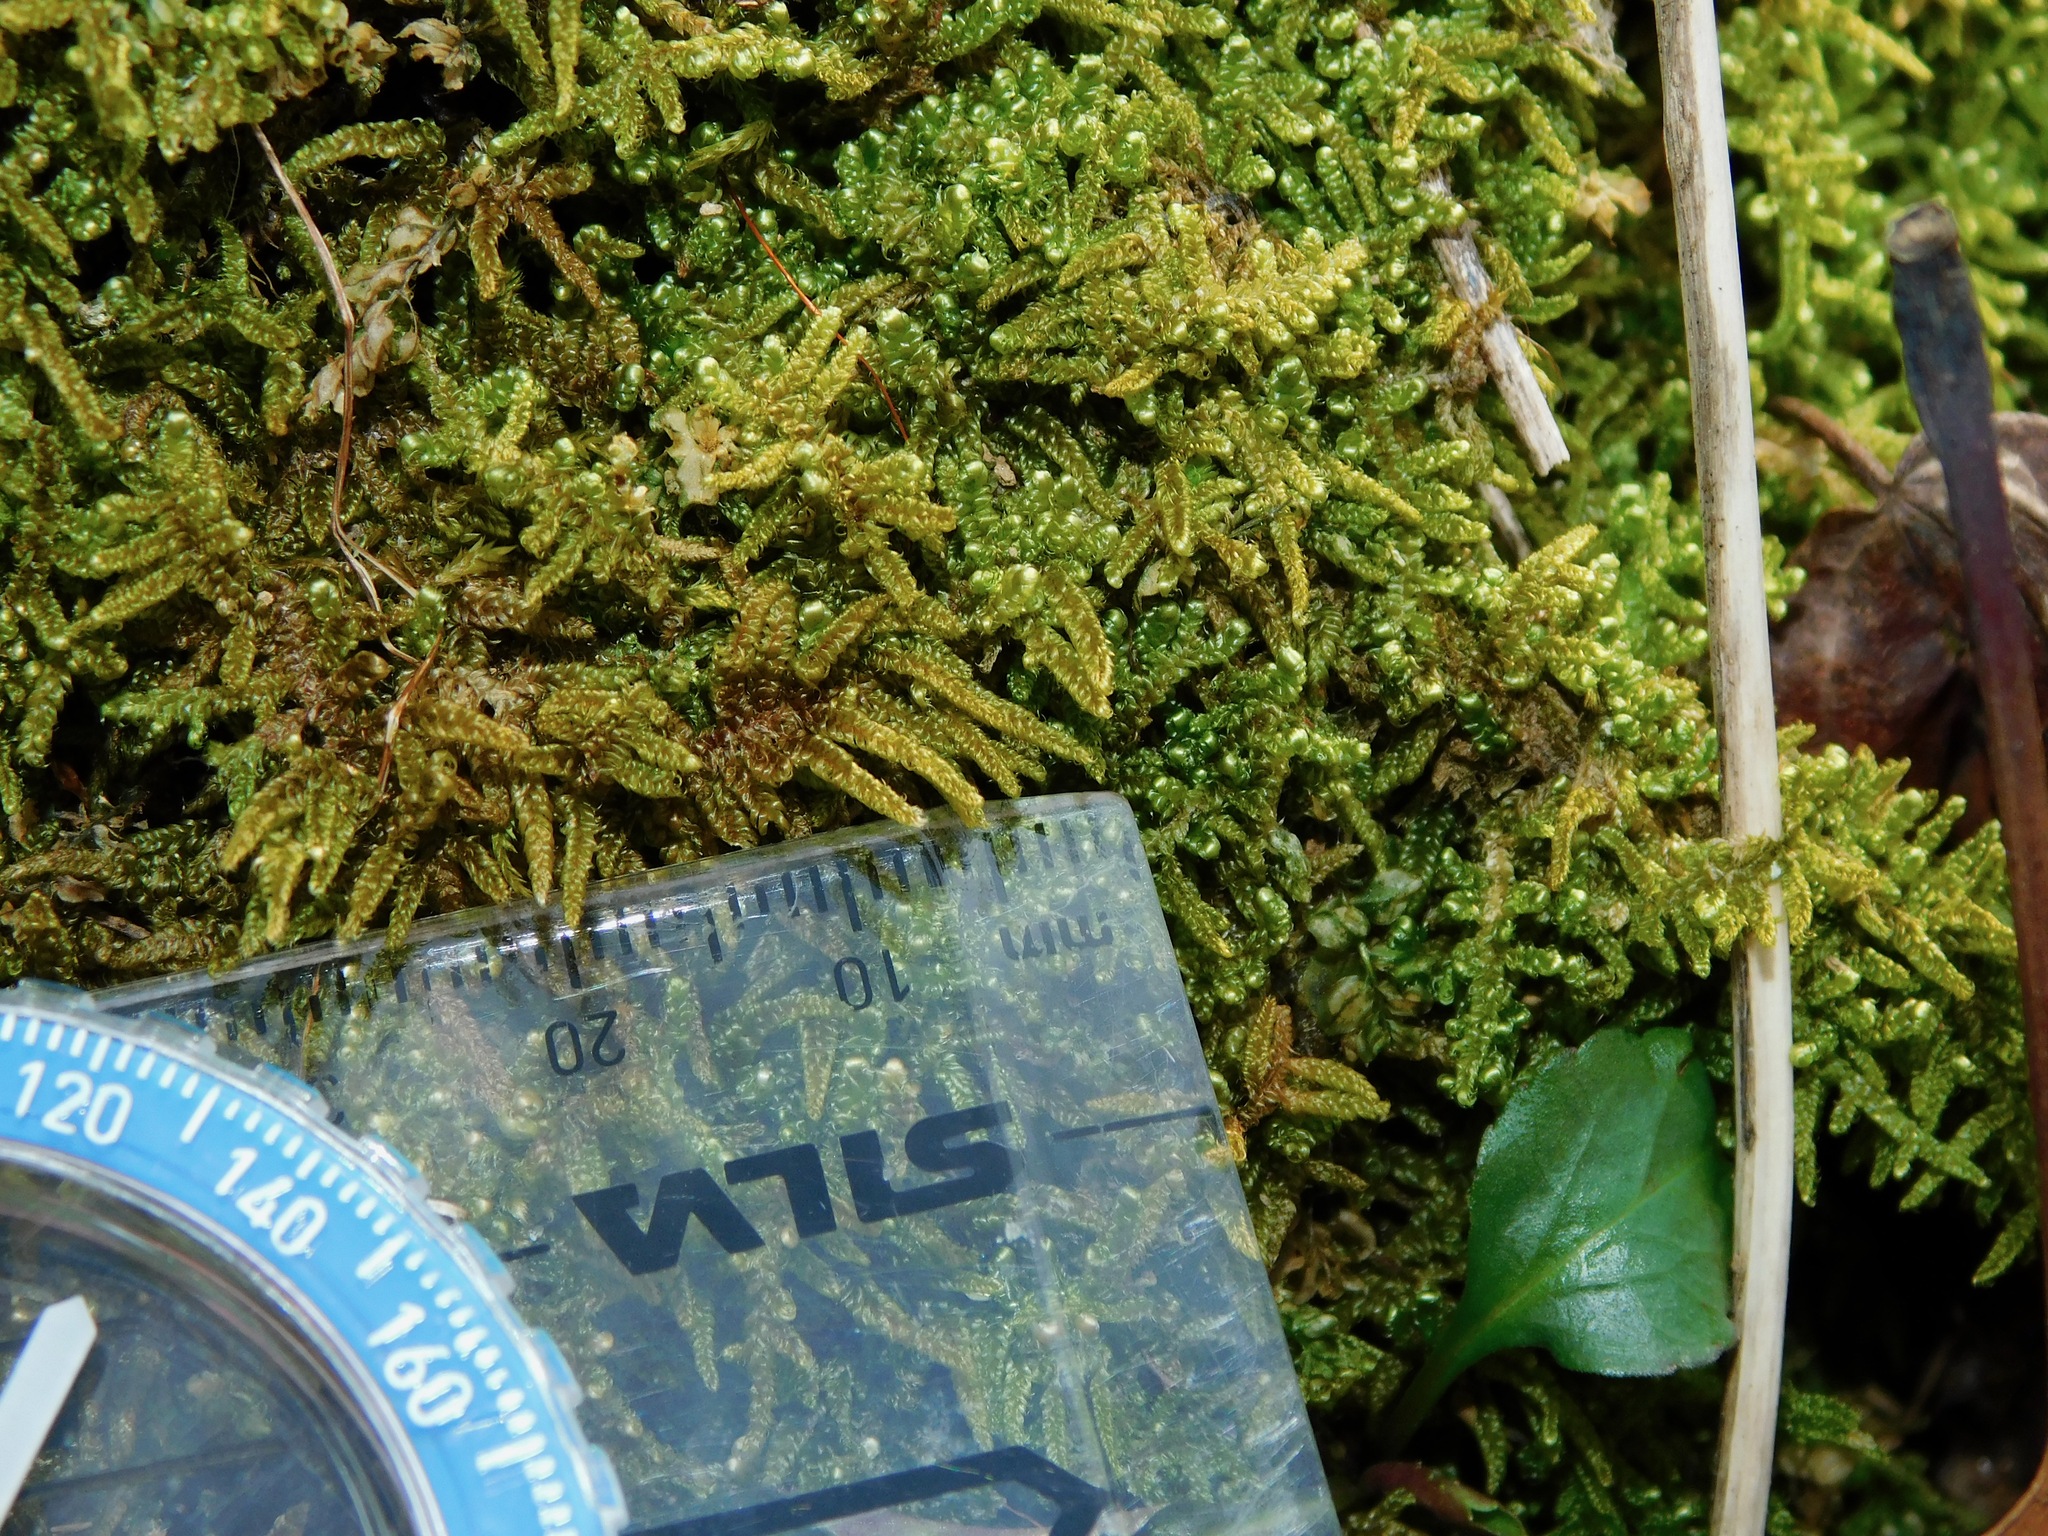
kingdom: Plantae
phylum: Bryophyta
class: Bryopsida
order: Hypnales
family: Callicladiaceae
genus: Callicladium
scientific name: Callicladium imponens
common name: Brocade moss
